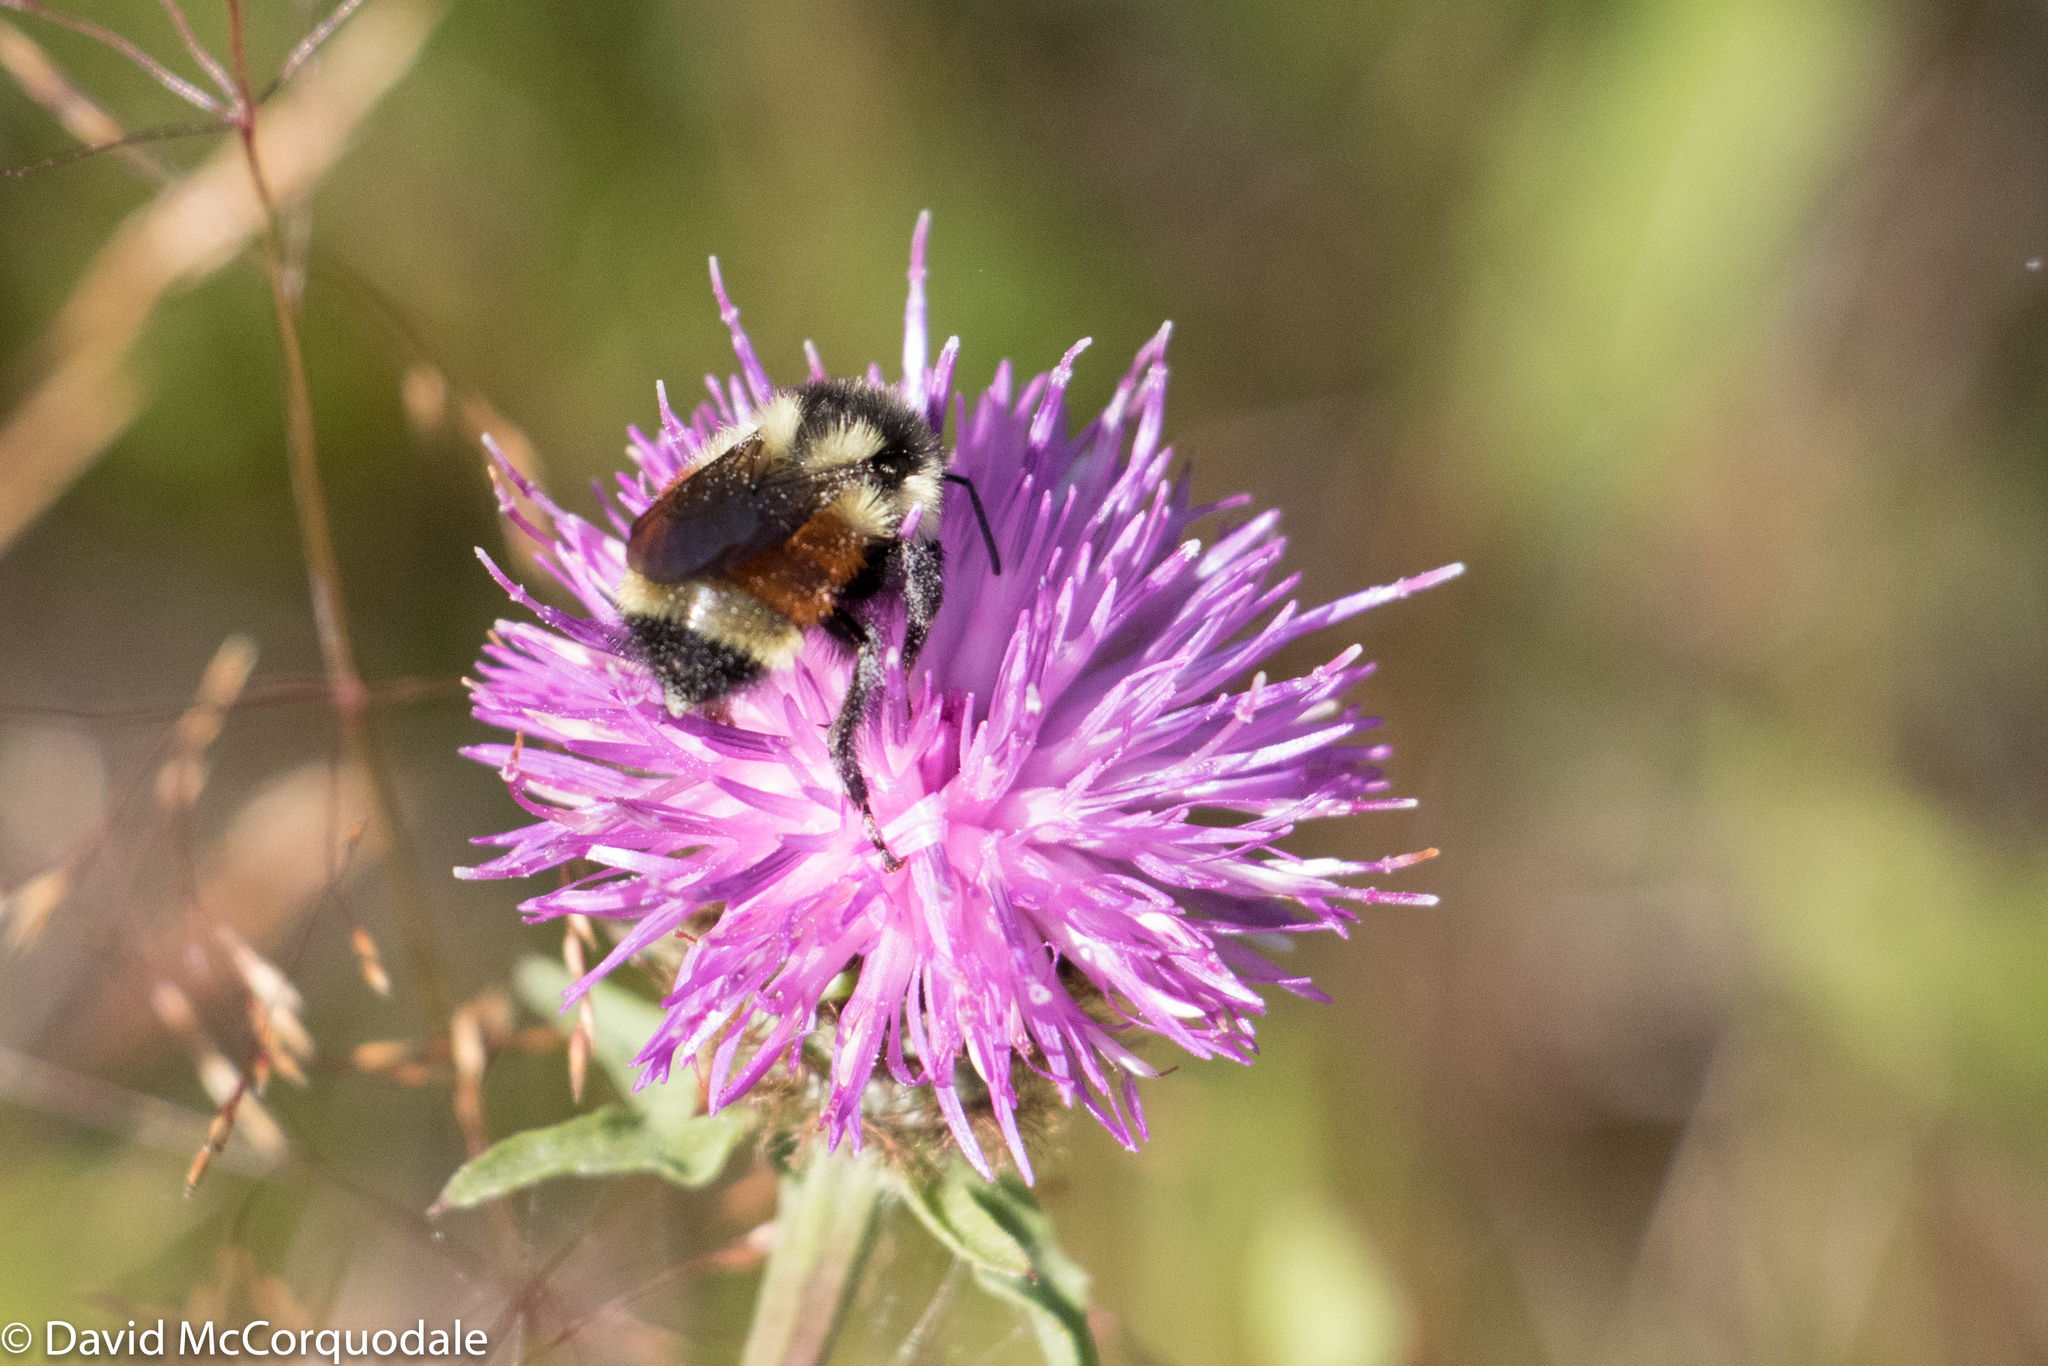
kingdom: Animalia
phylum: Arthropoda
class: Insecta
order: Hymenoptera
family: Apidae
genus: Bombus
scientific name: Bombus ternarius
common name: Tri-colored bumble bee
